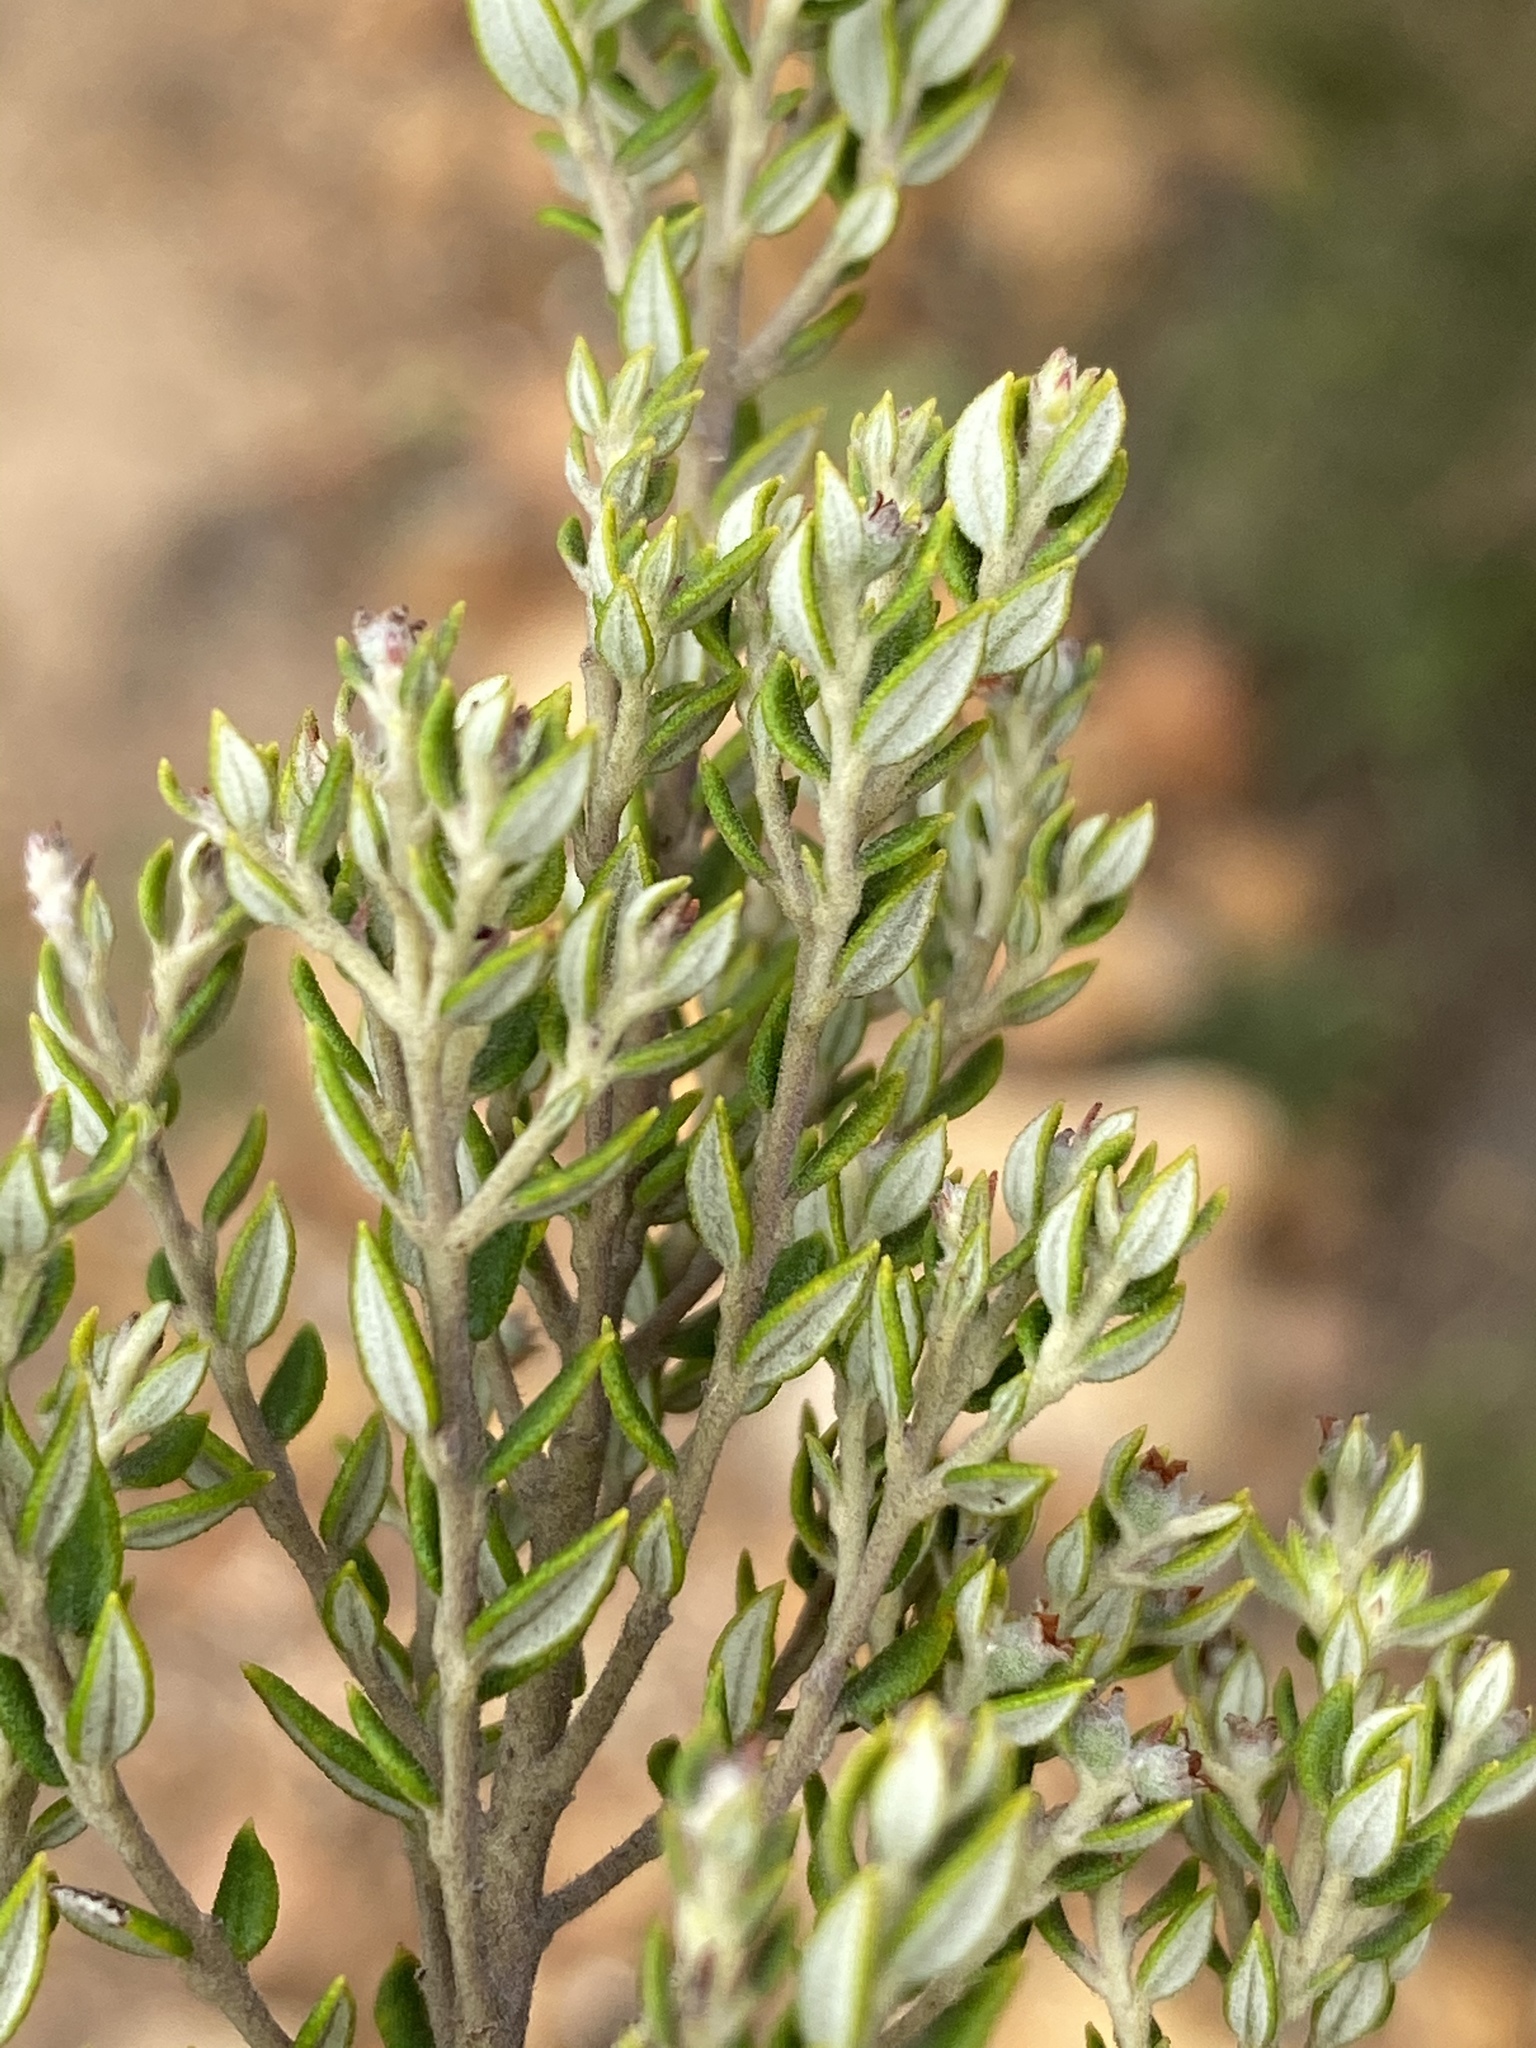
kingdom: Plantae
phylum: Tracheophyta
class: Magnoliopsida
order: Rosales
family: Rhamnaceae
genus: Phylica
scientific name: Phylica paniculata
